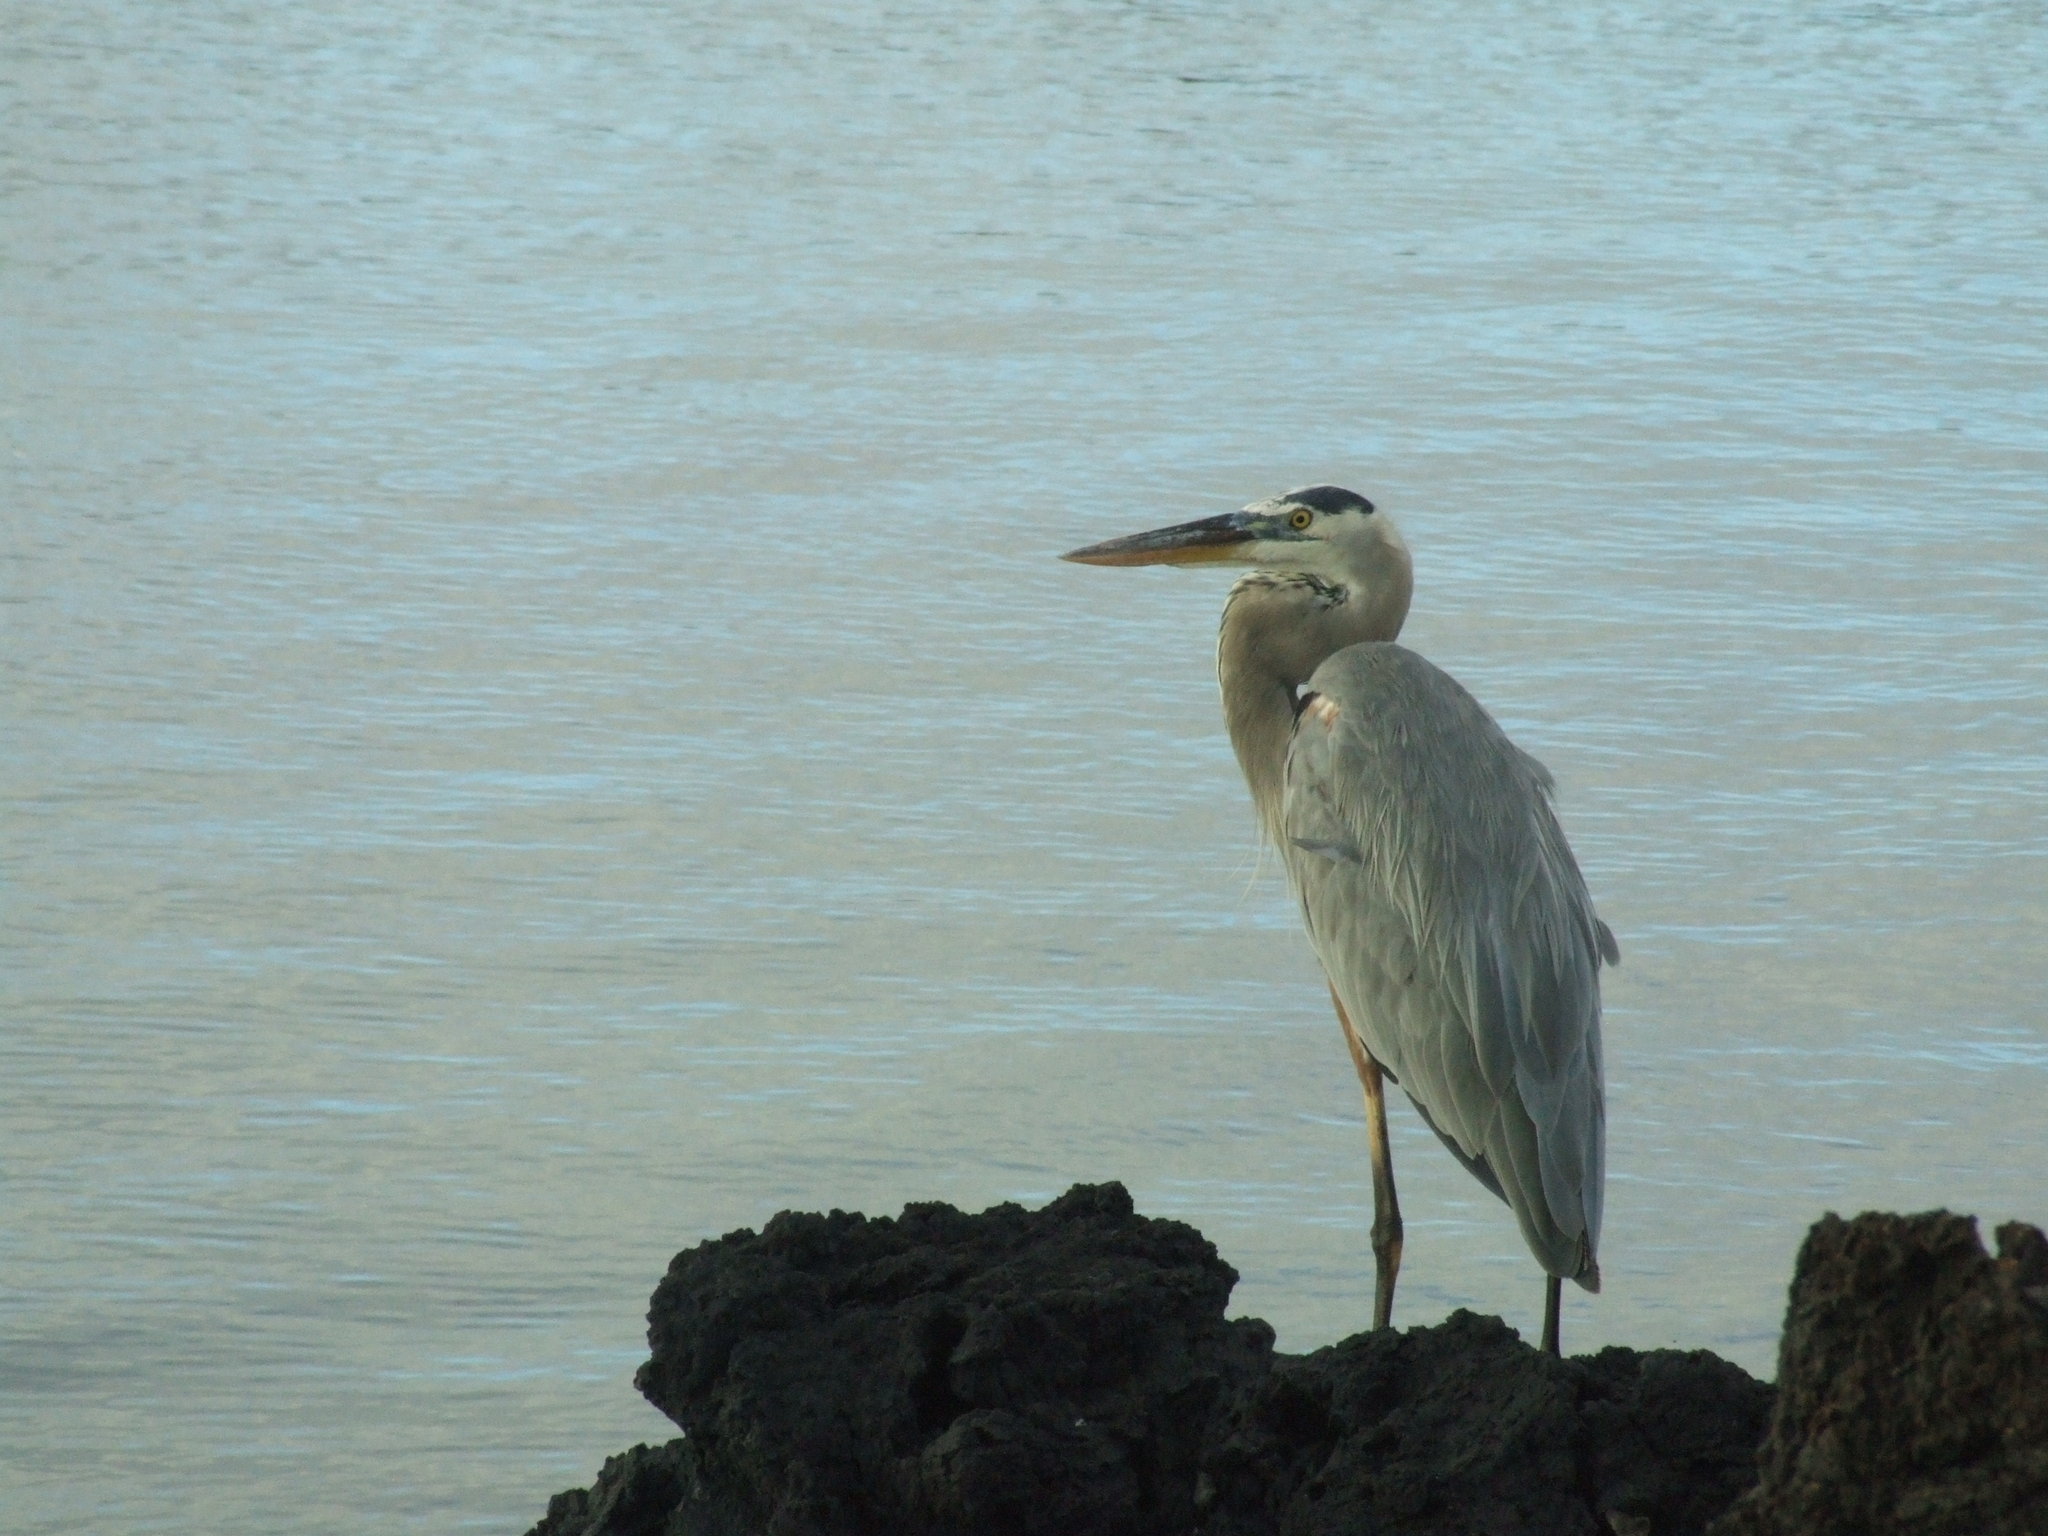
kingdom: Animalia
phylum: Chordata
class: Aves
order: Pelecaniformes
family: Ardeidae
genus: Ardea
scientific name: Ardea herodias
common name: Great blue heron
